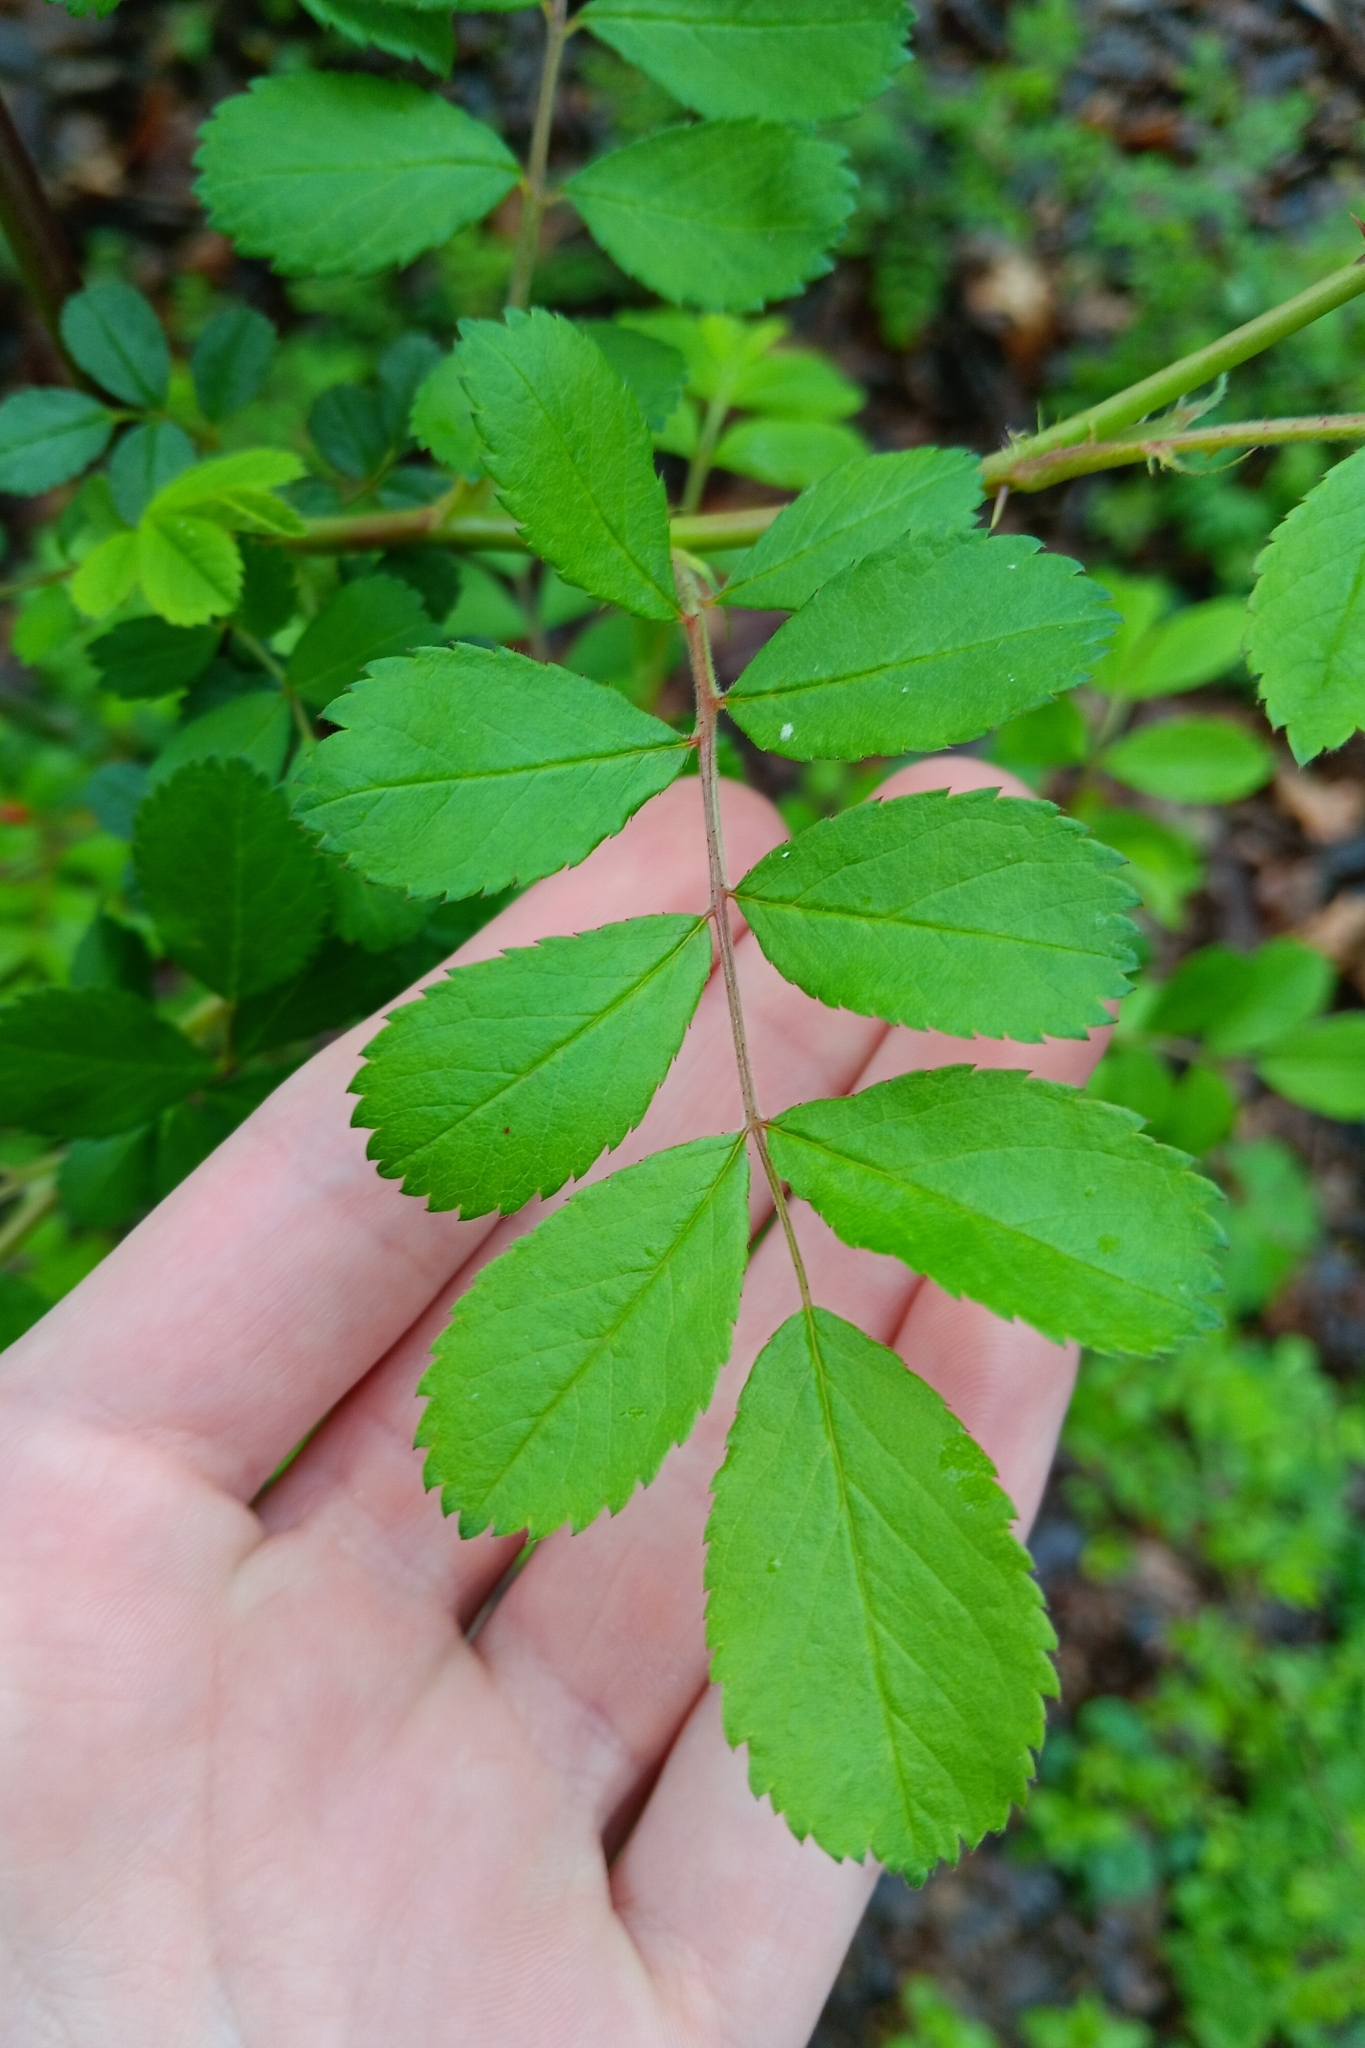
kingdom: Plantae
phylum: Tracheophyta
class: Magnoliopsida
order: Rosales
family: Rosaceae
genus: Rosa
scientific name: Rosa multiflora
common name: Multiflora rose
